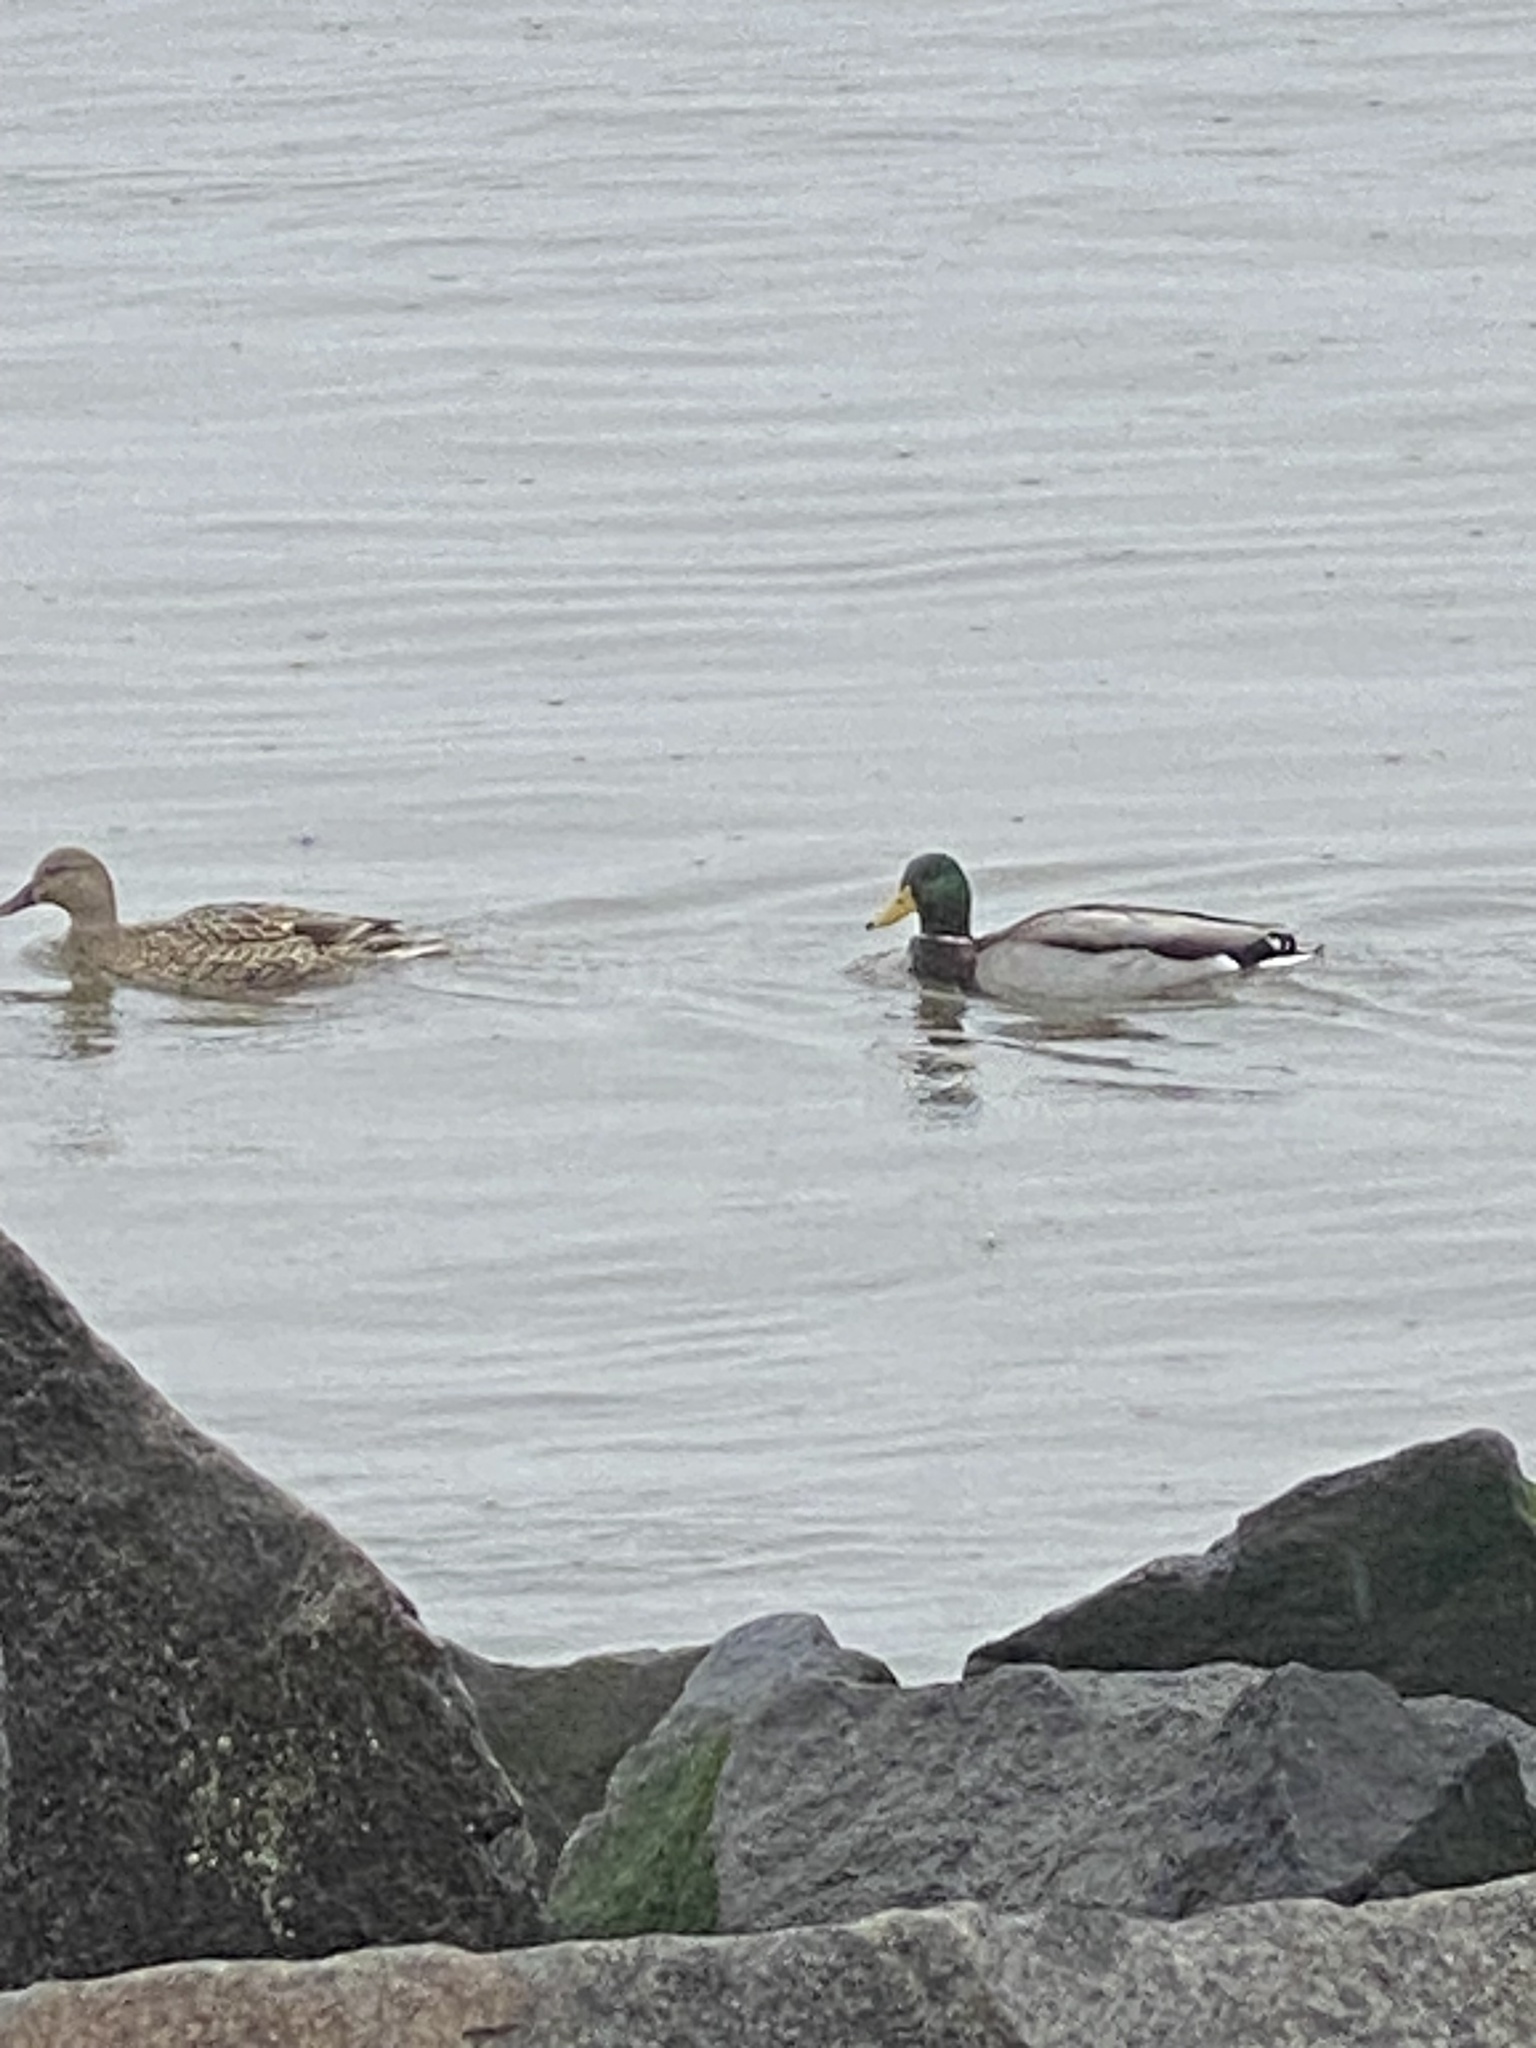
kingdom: Animalia
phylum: Chordata
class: Aves
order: Anseriformes
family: Anatidae
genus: Anas
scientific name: Anas platyrhynchos
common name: Mallard
